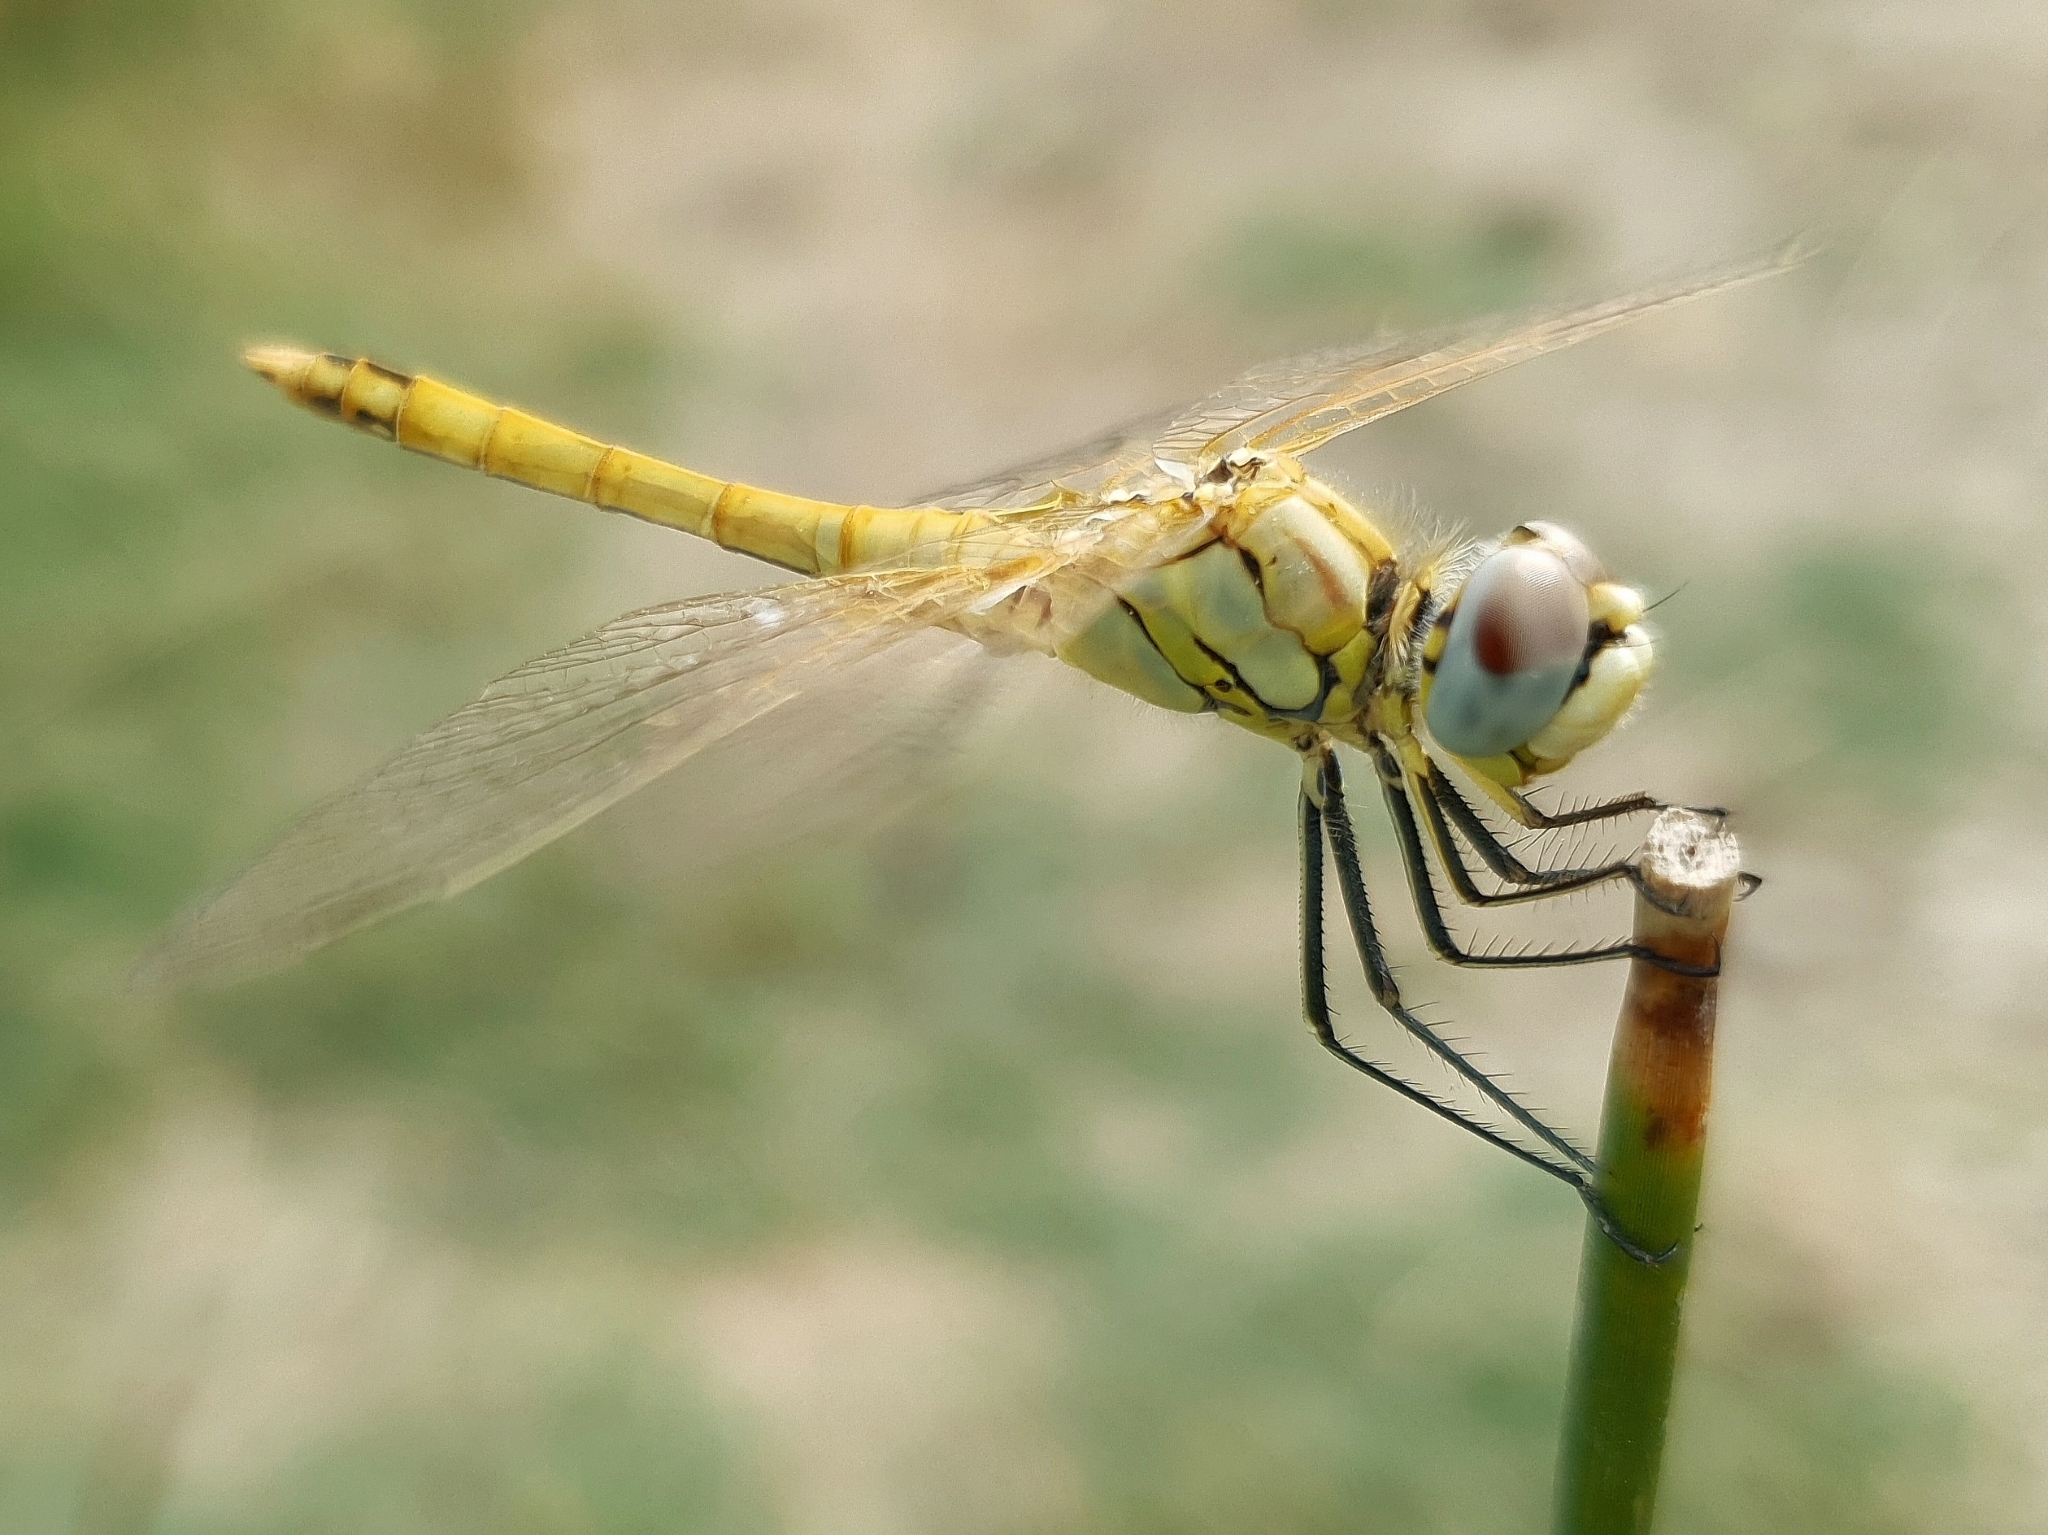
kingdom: Animalia
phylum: Arthropoda
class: Insecta
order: Odonata
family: Libellulidae
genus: Sympetrum
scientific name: Sympetrum fonscolombii
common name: Red-veined darter
